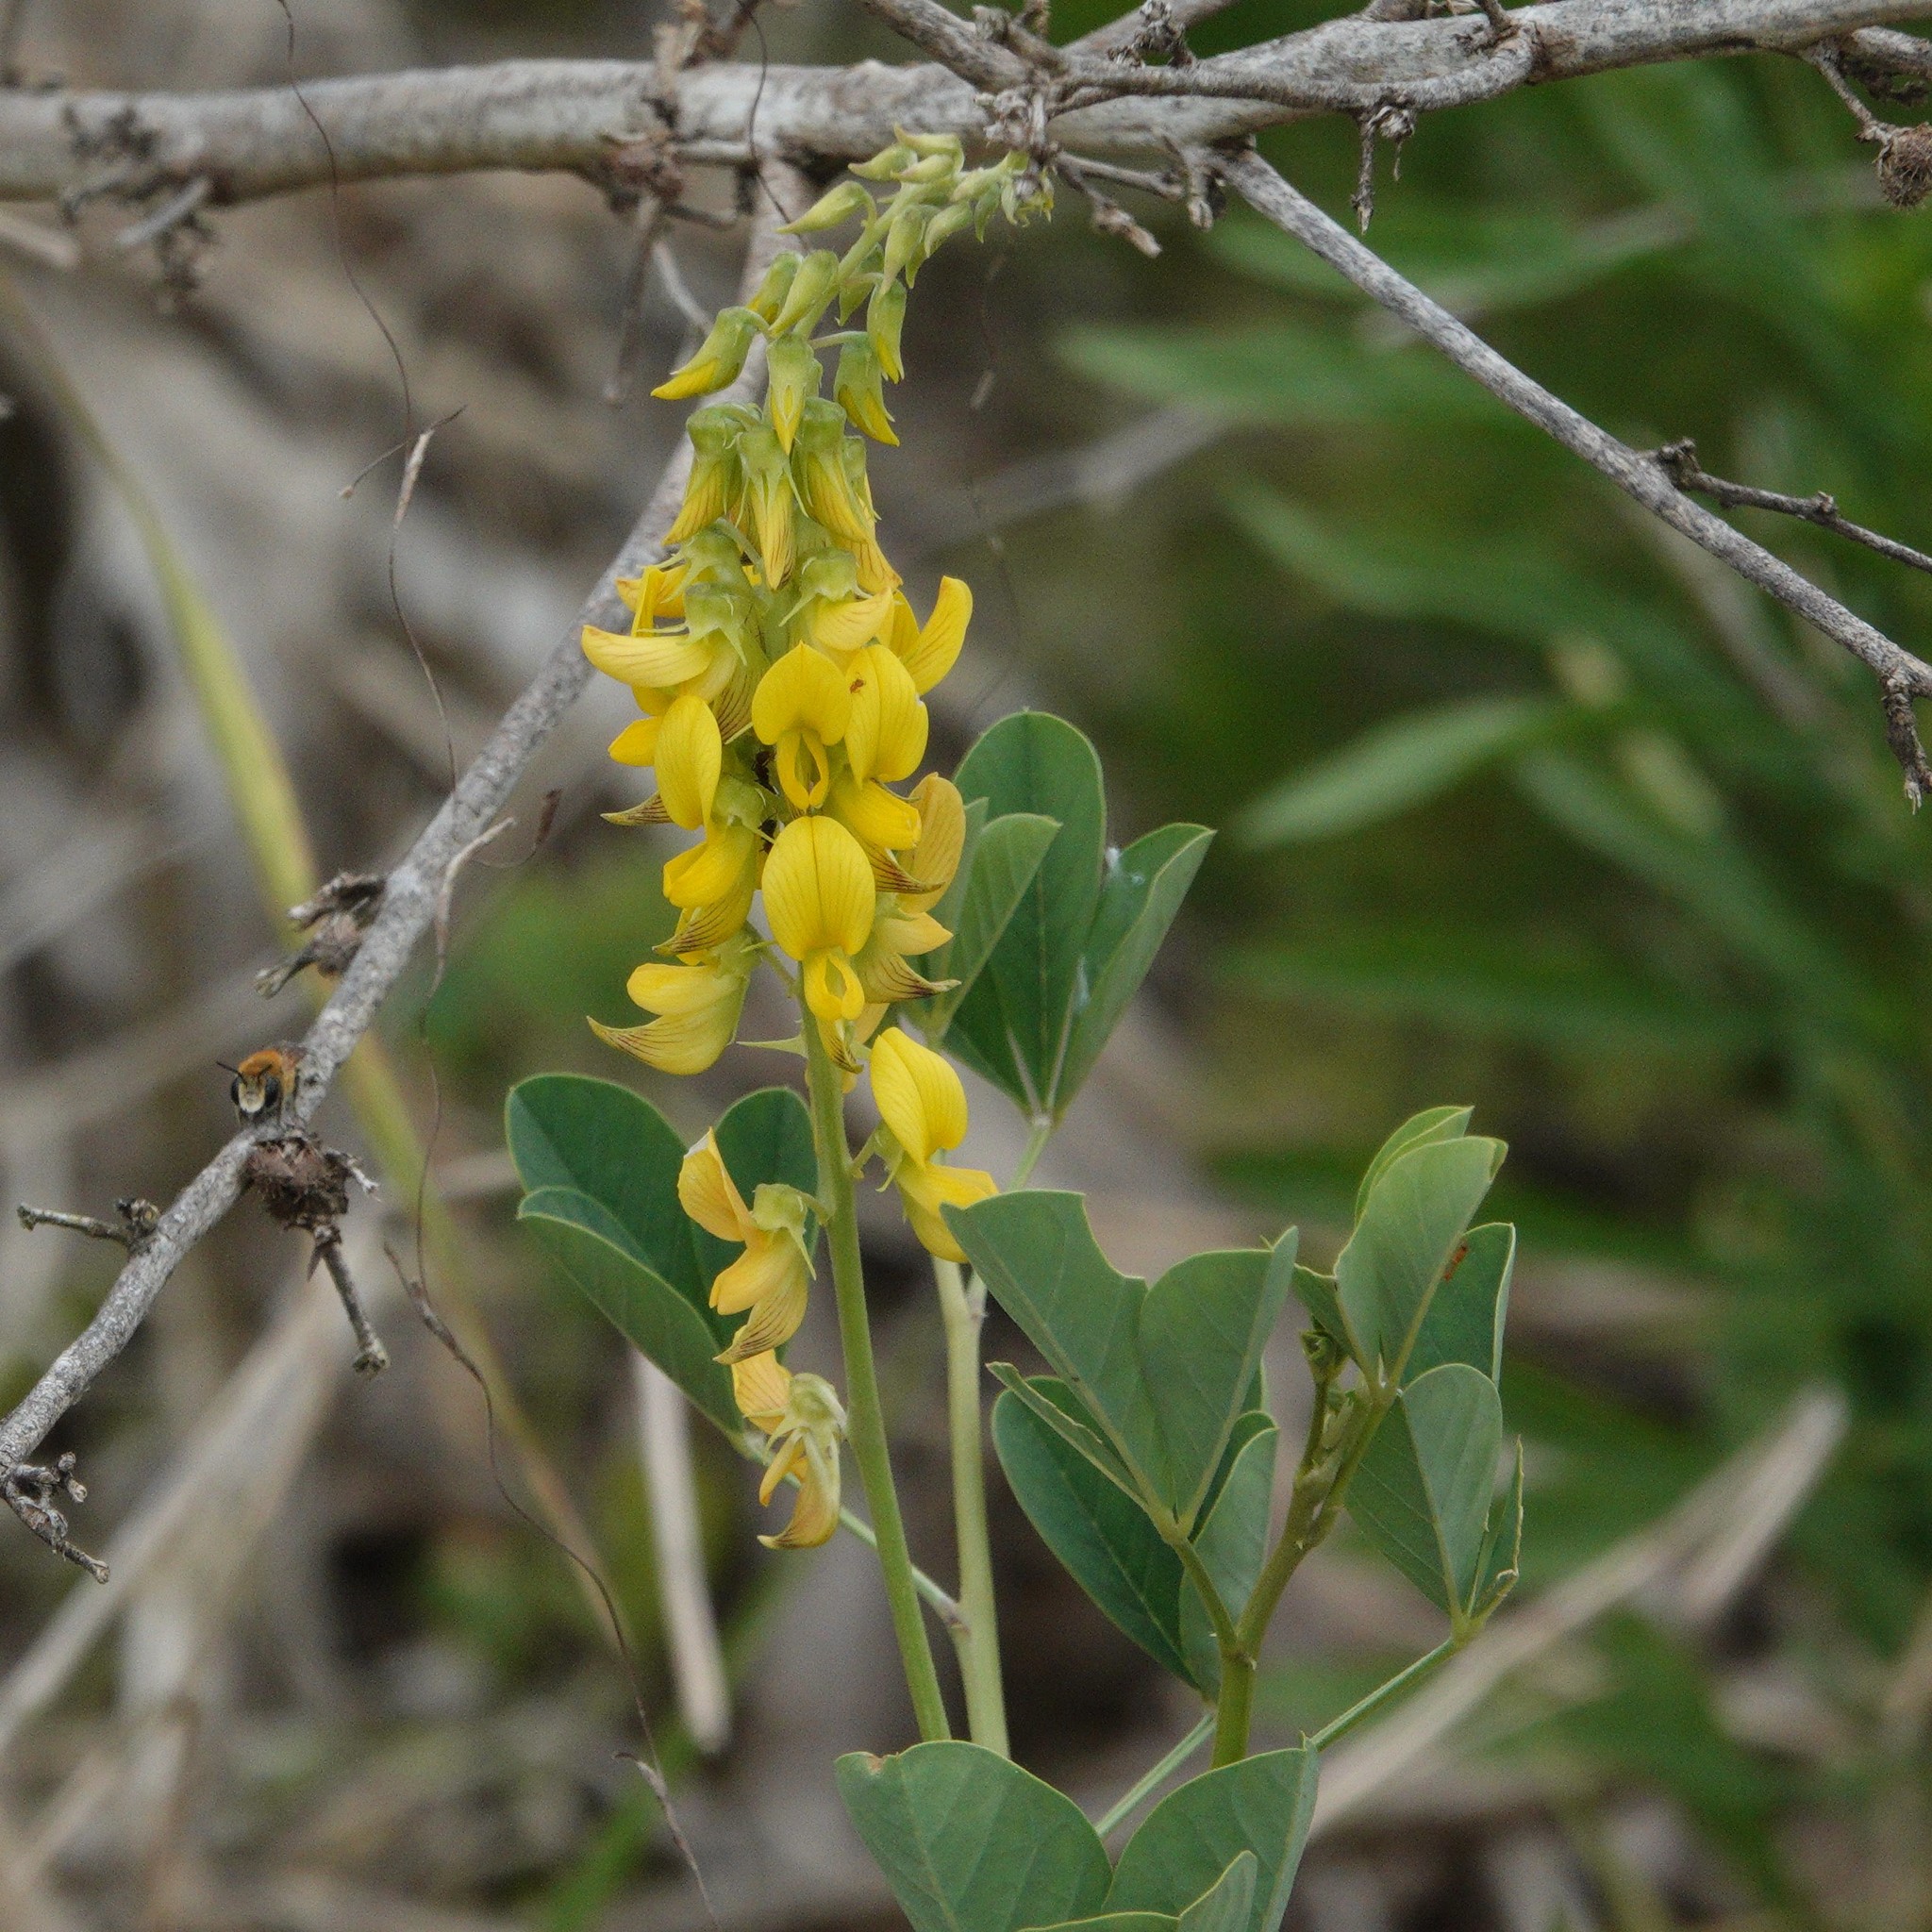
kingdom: Plantae
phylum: Tracheophyta
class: Magnoliopsida
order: Fabales
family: Fabaceae
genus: Crotalaria
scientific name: Crotalaria pallida
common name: Smooth rattlebox
